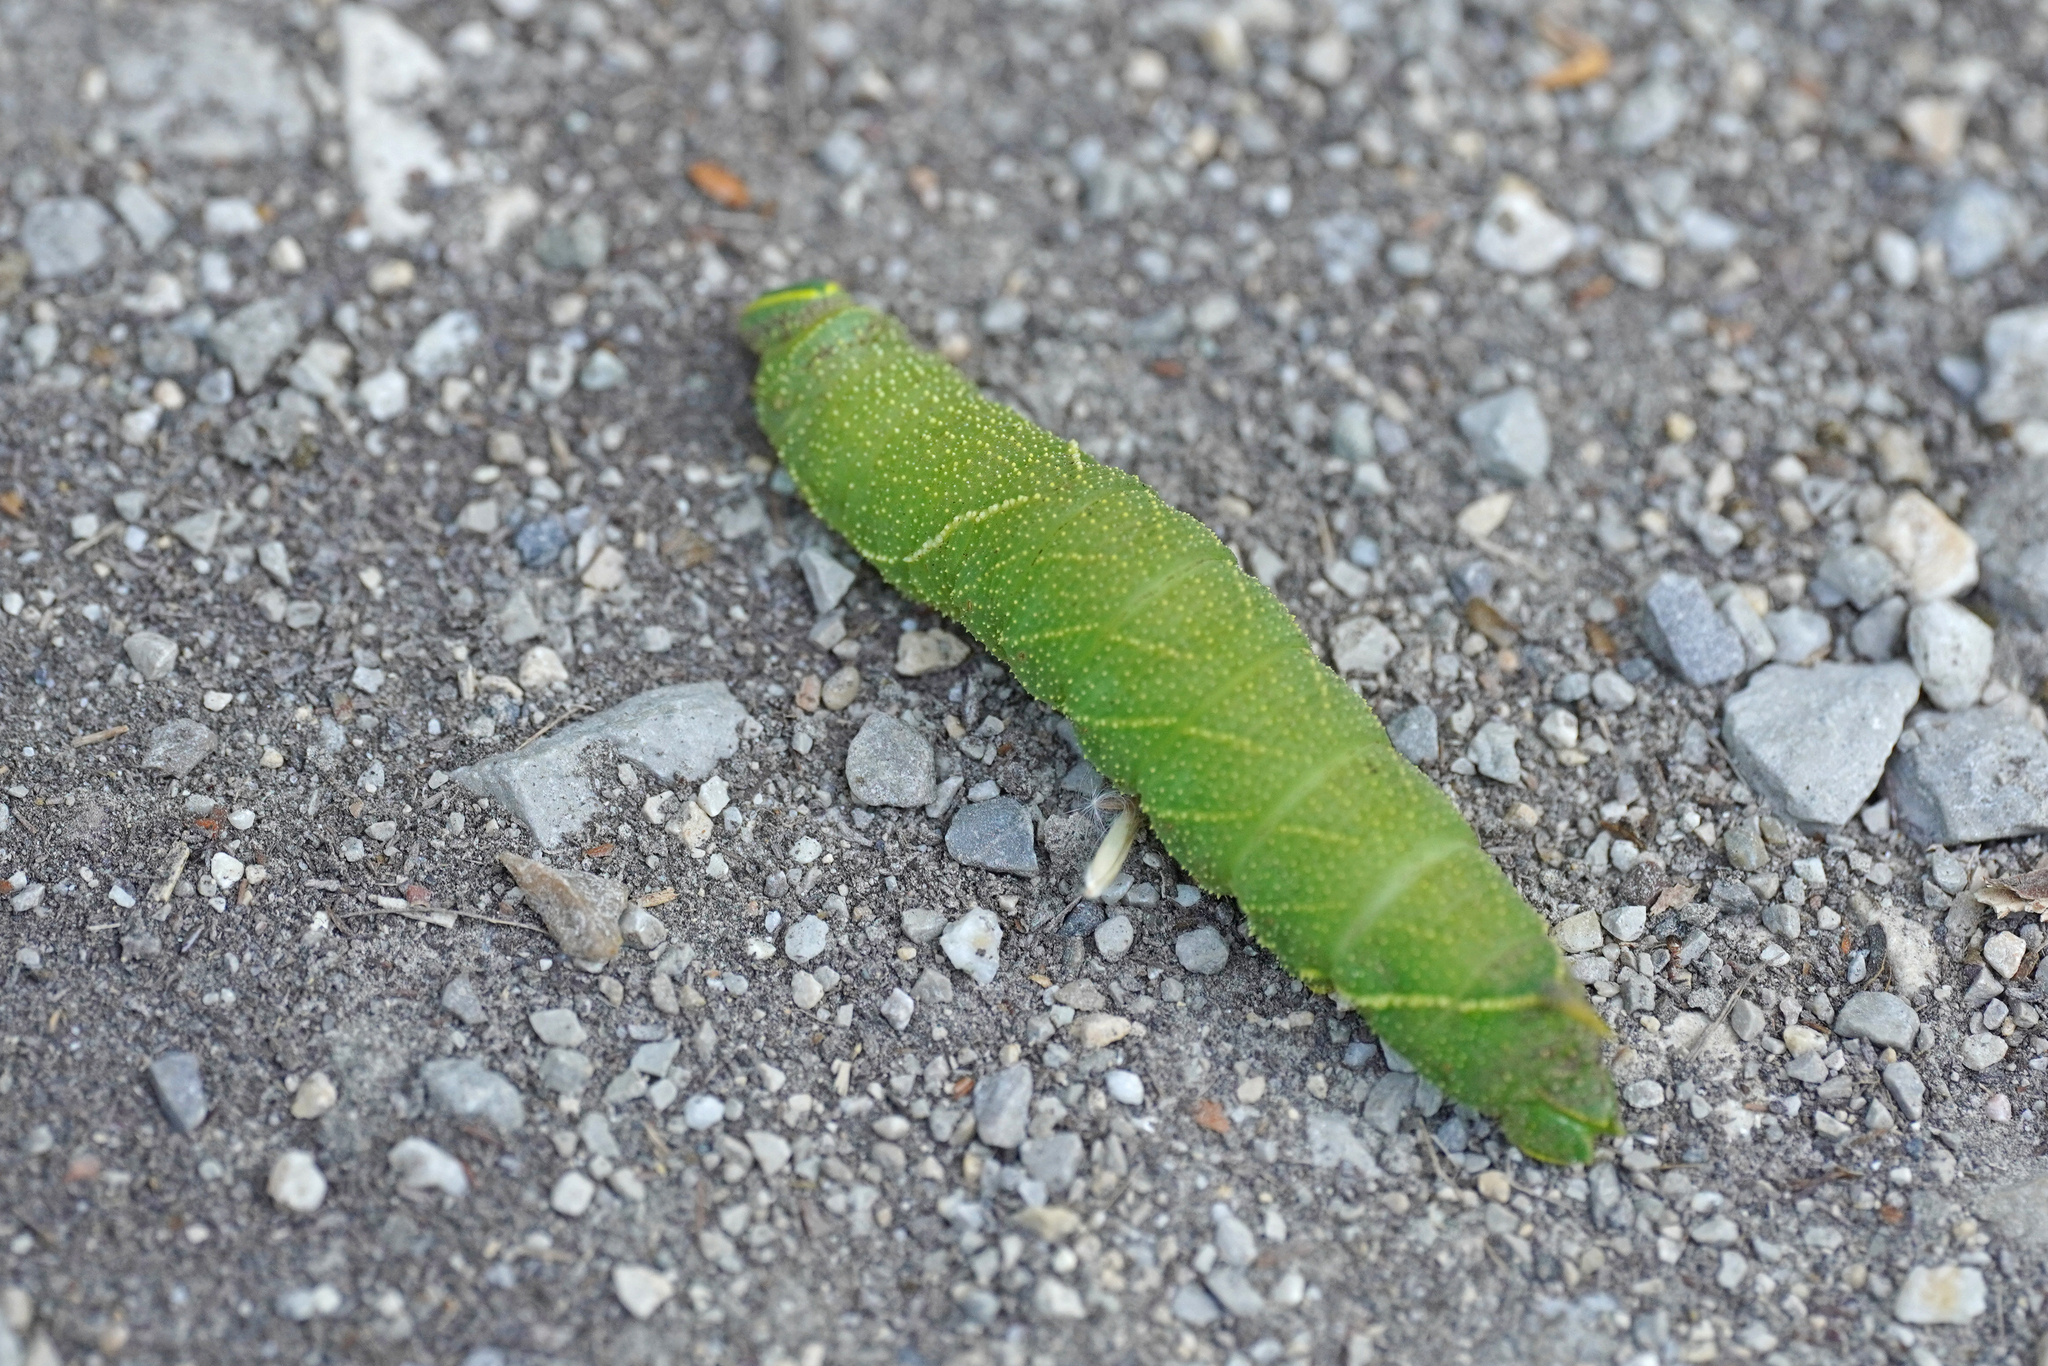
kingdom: Animalia
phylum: Arthropoda
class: Insecta
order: Lepidoptera
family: Sphingidae
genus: Laothoe
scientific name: Laothoe populi
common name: Poplar hawk-moth
